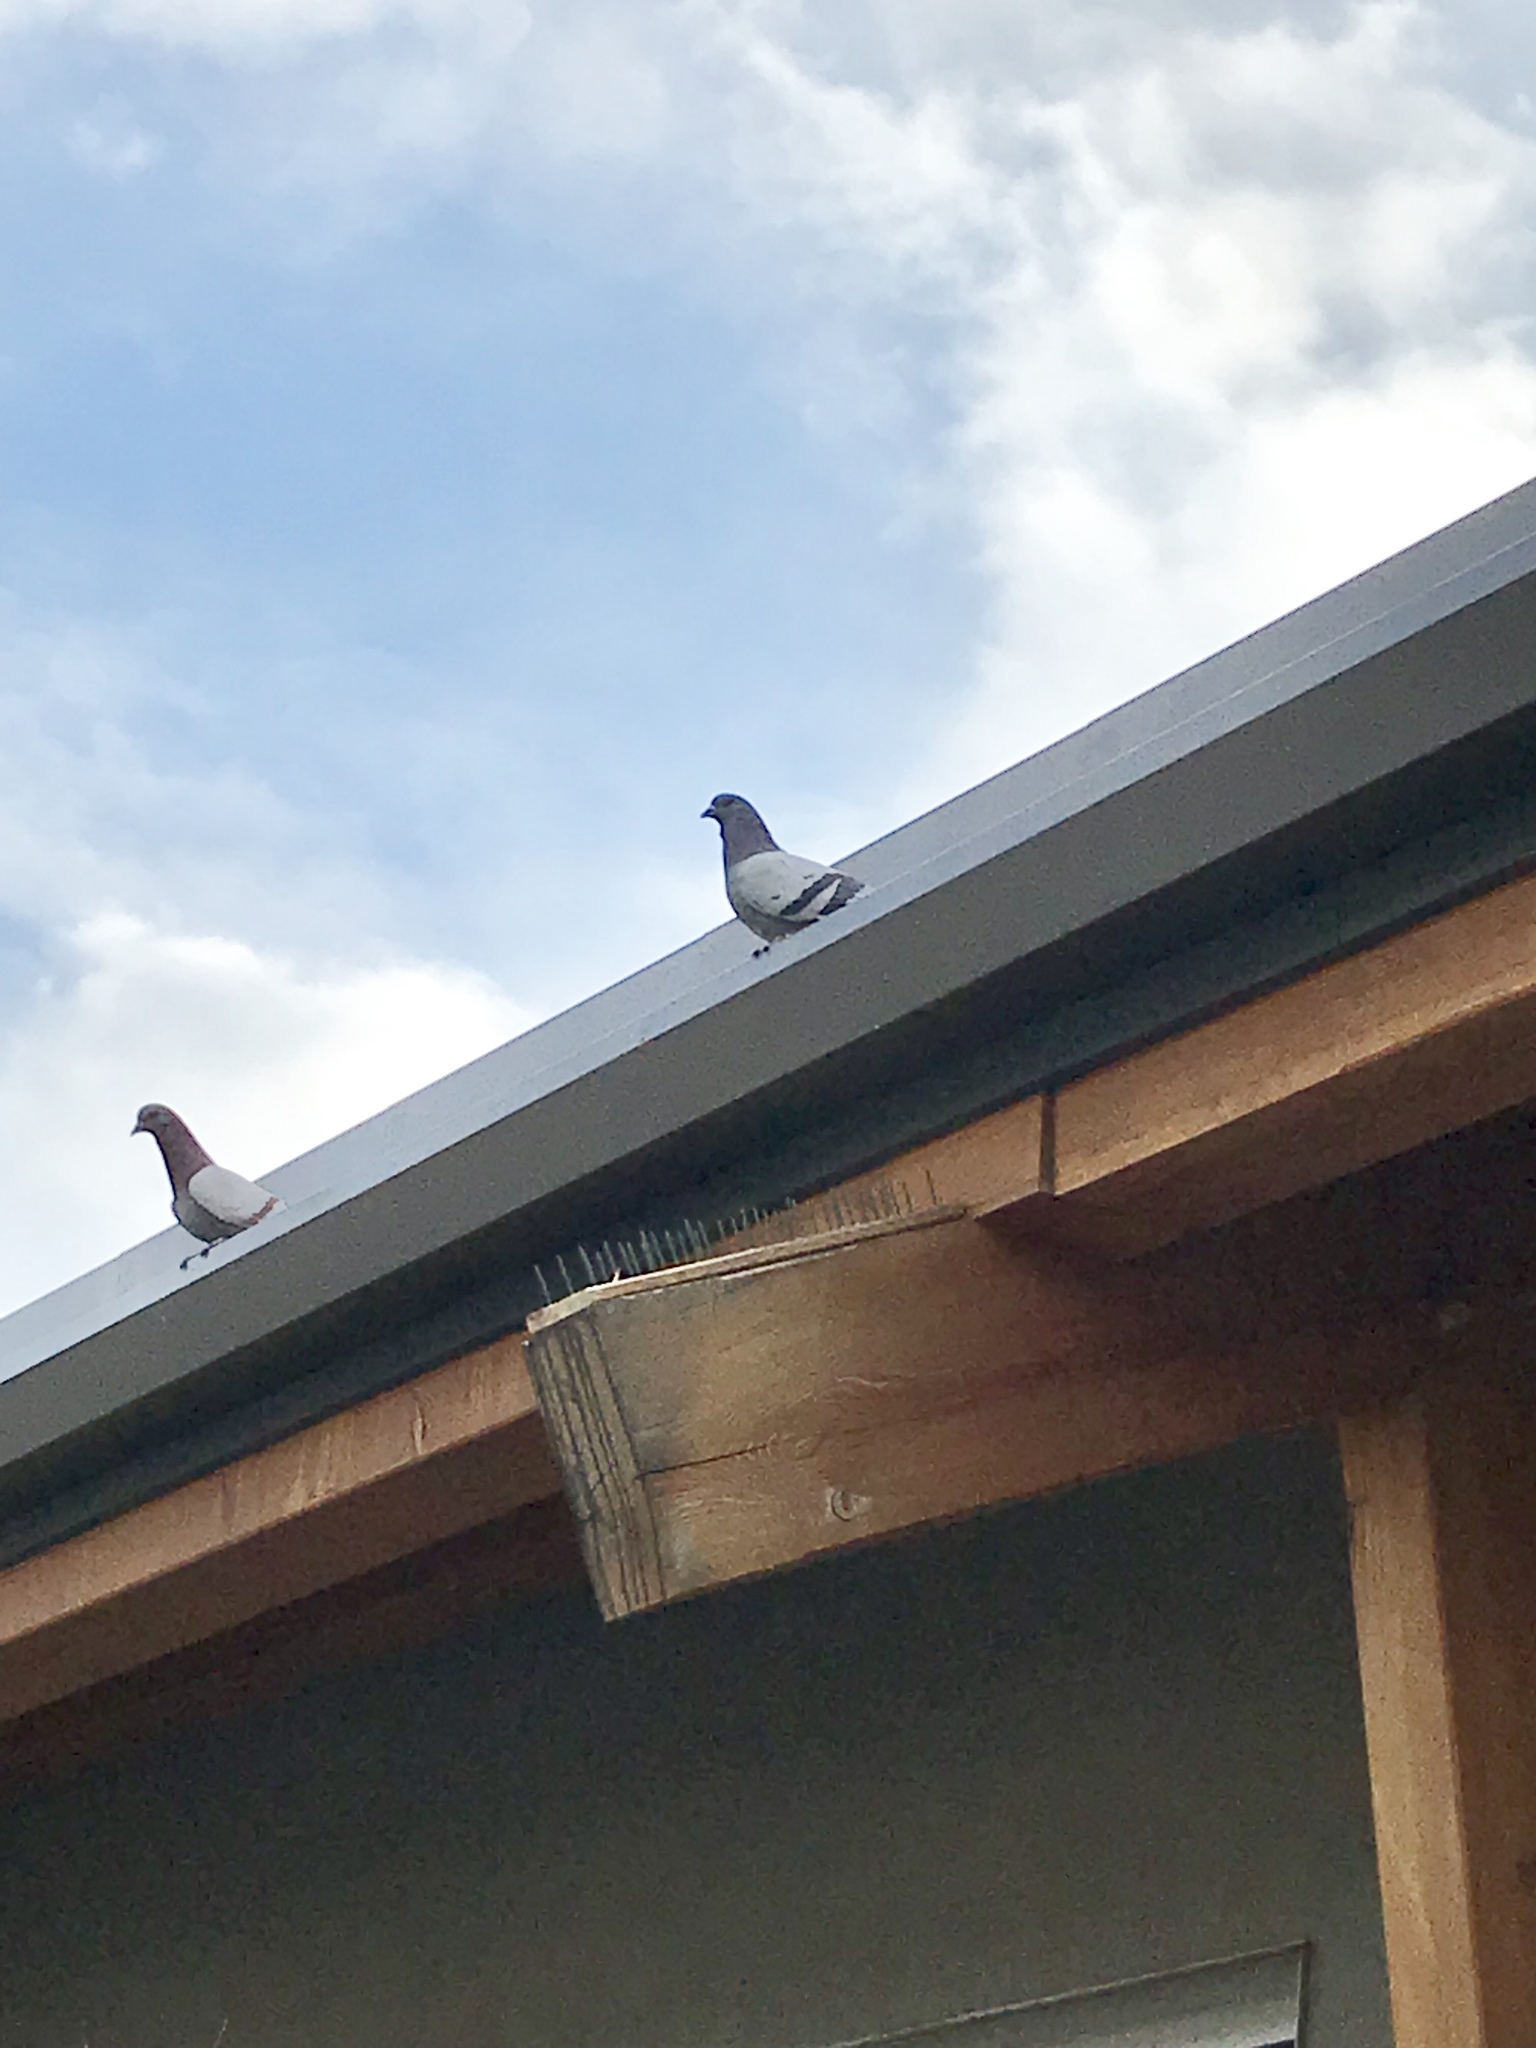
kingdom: Animalia
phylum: Chordata
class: Aves
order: Columbiformes
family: Columbidae
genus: Columba
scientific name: Columba livia
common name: Rock pigeon
